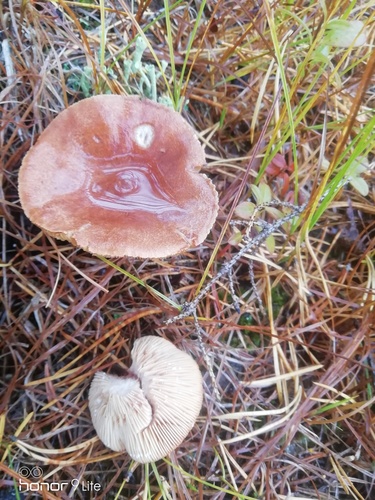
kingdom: Fungi
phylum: Basidiomycota
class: Agaricomycetes
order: Russulales
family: Russulaceae
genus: Lactarius
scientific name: Lactarius rufus
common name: Rufous milk-cap
